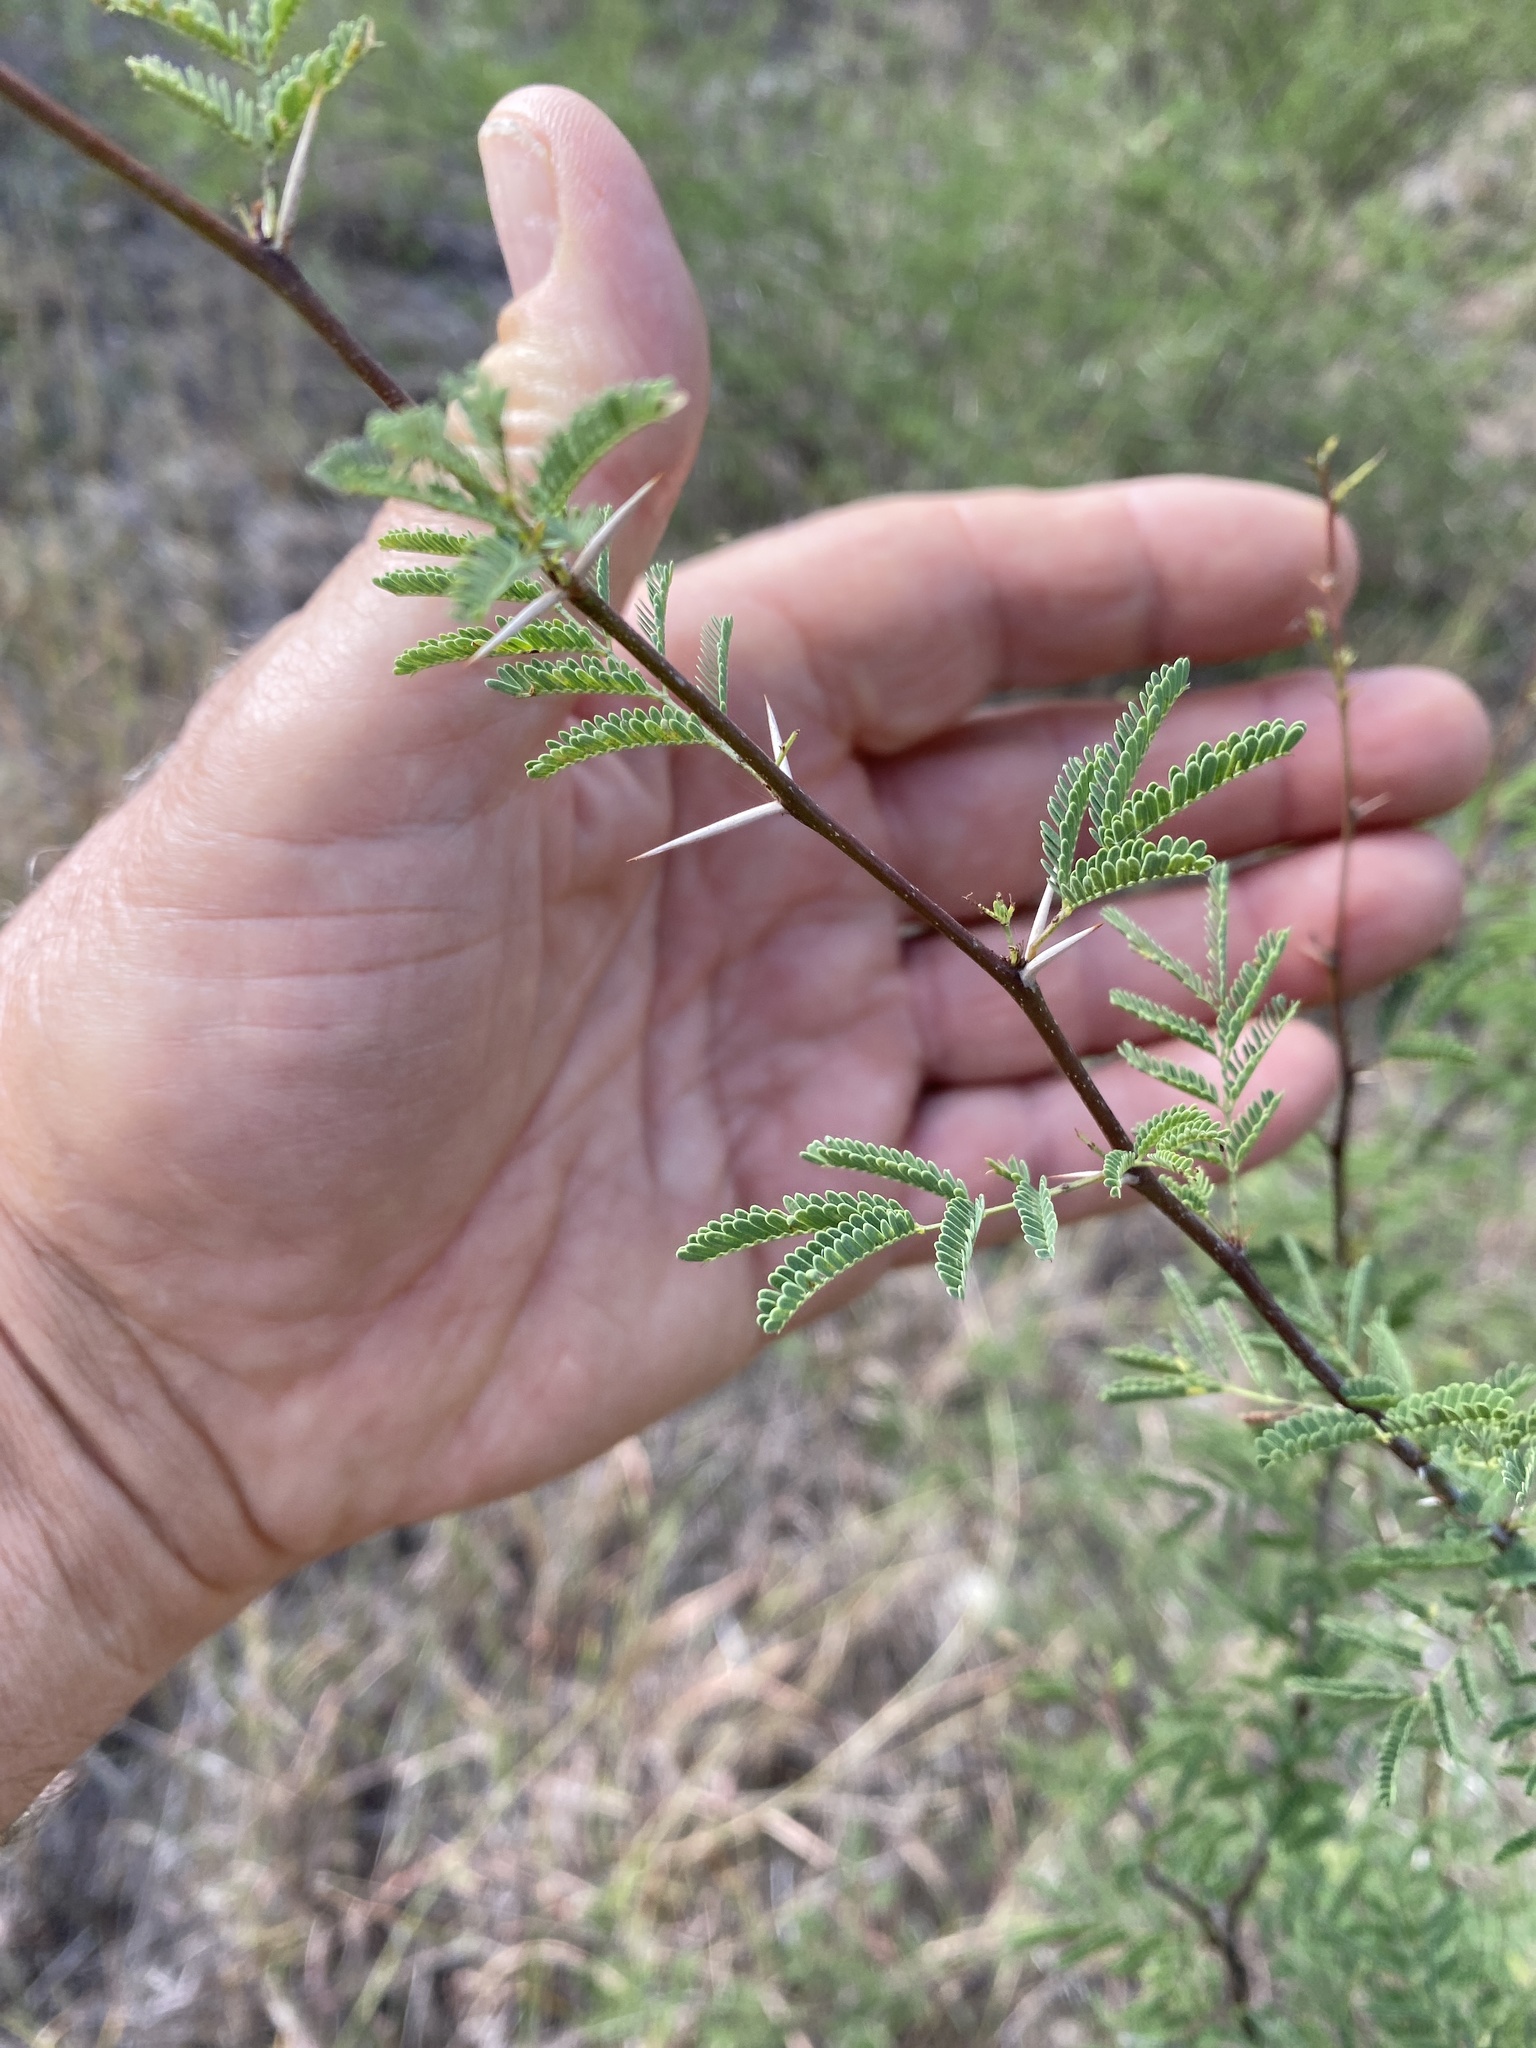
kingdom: Plantae
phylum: Tracheophyta
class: Magnoliopsida
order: Fabales
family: Fabaceae
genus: Vachellia
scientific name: Vachellia farnesiana
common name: Sweet acacia
